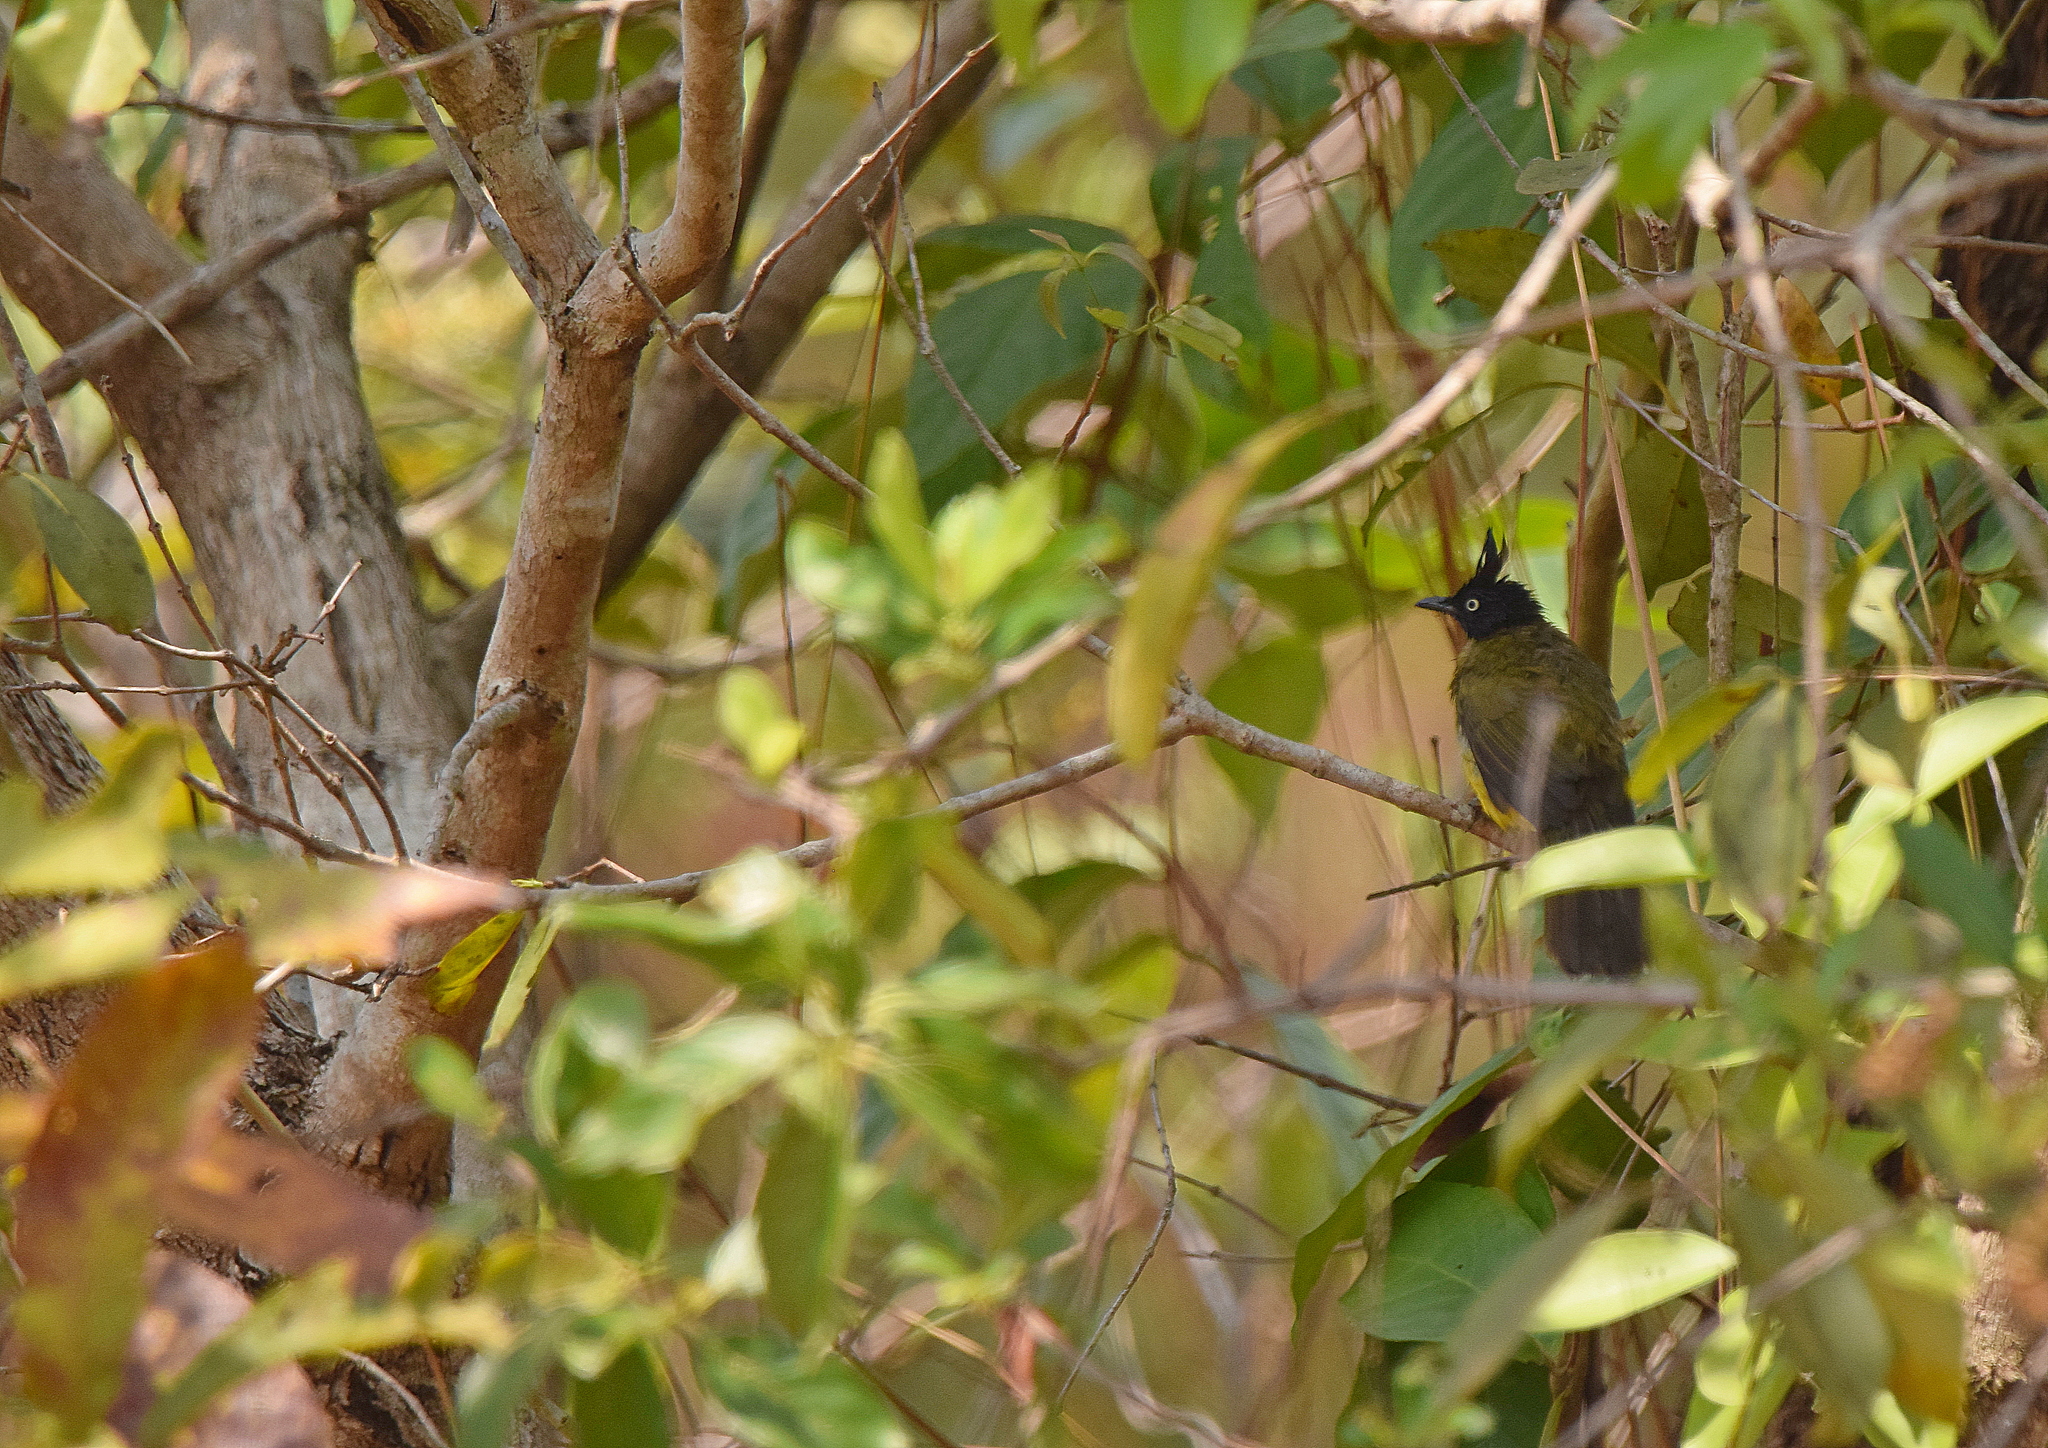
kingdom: Animalia
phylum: Chordata
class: Aves
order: Passeriformes
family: Pycnonotidae
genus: Pycnonotus
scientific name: Pycnonotus flaviventris
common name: Black-crested bulbul
